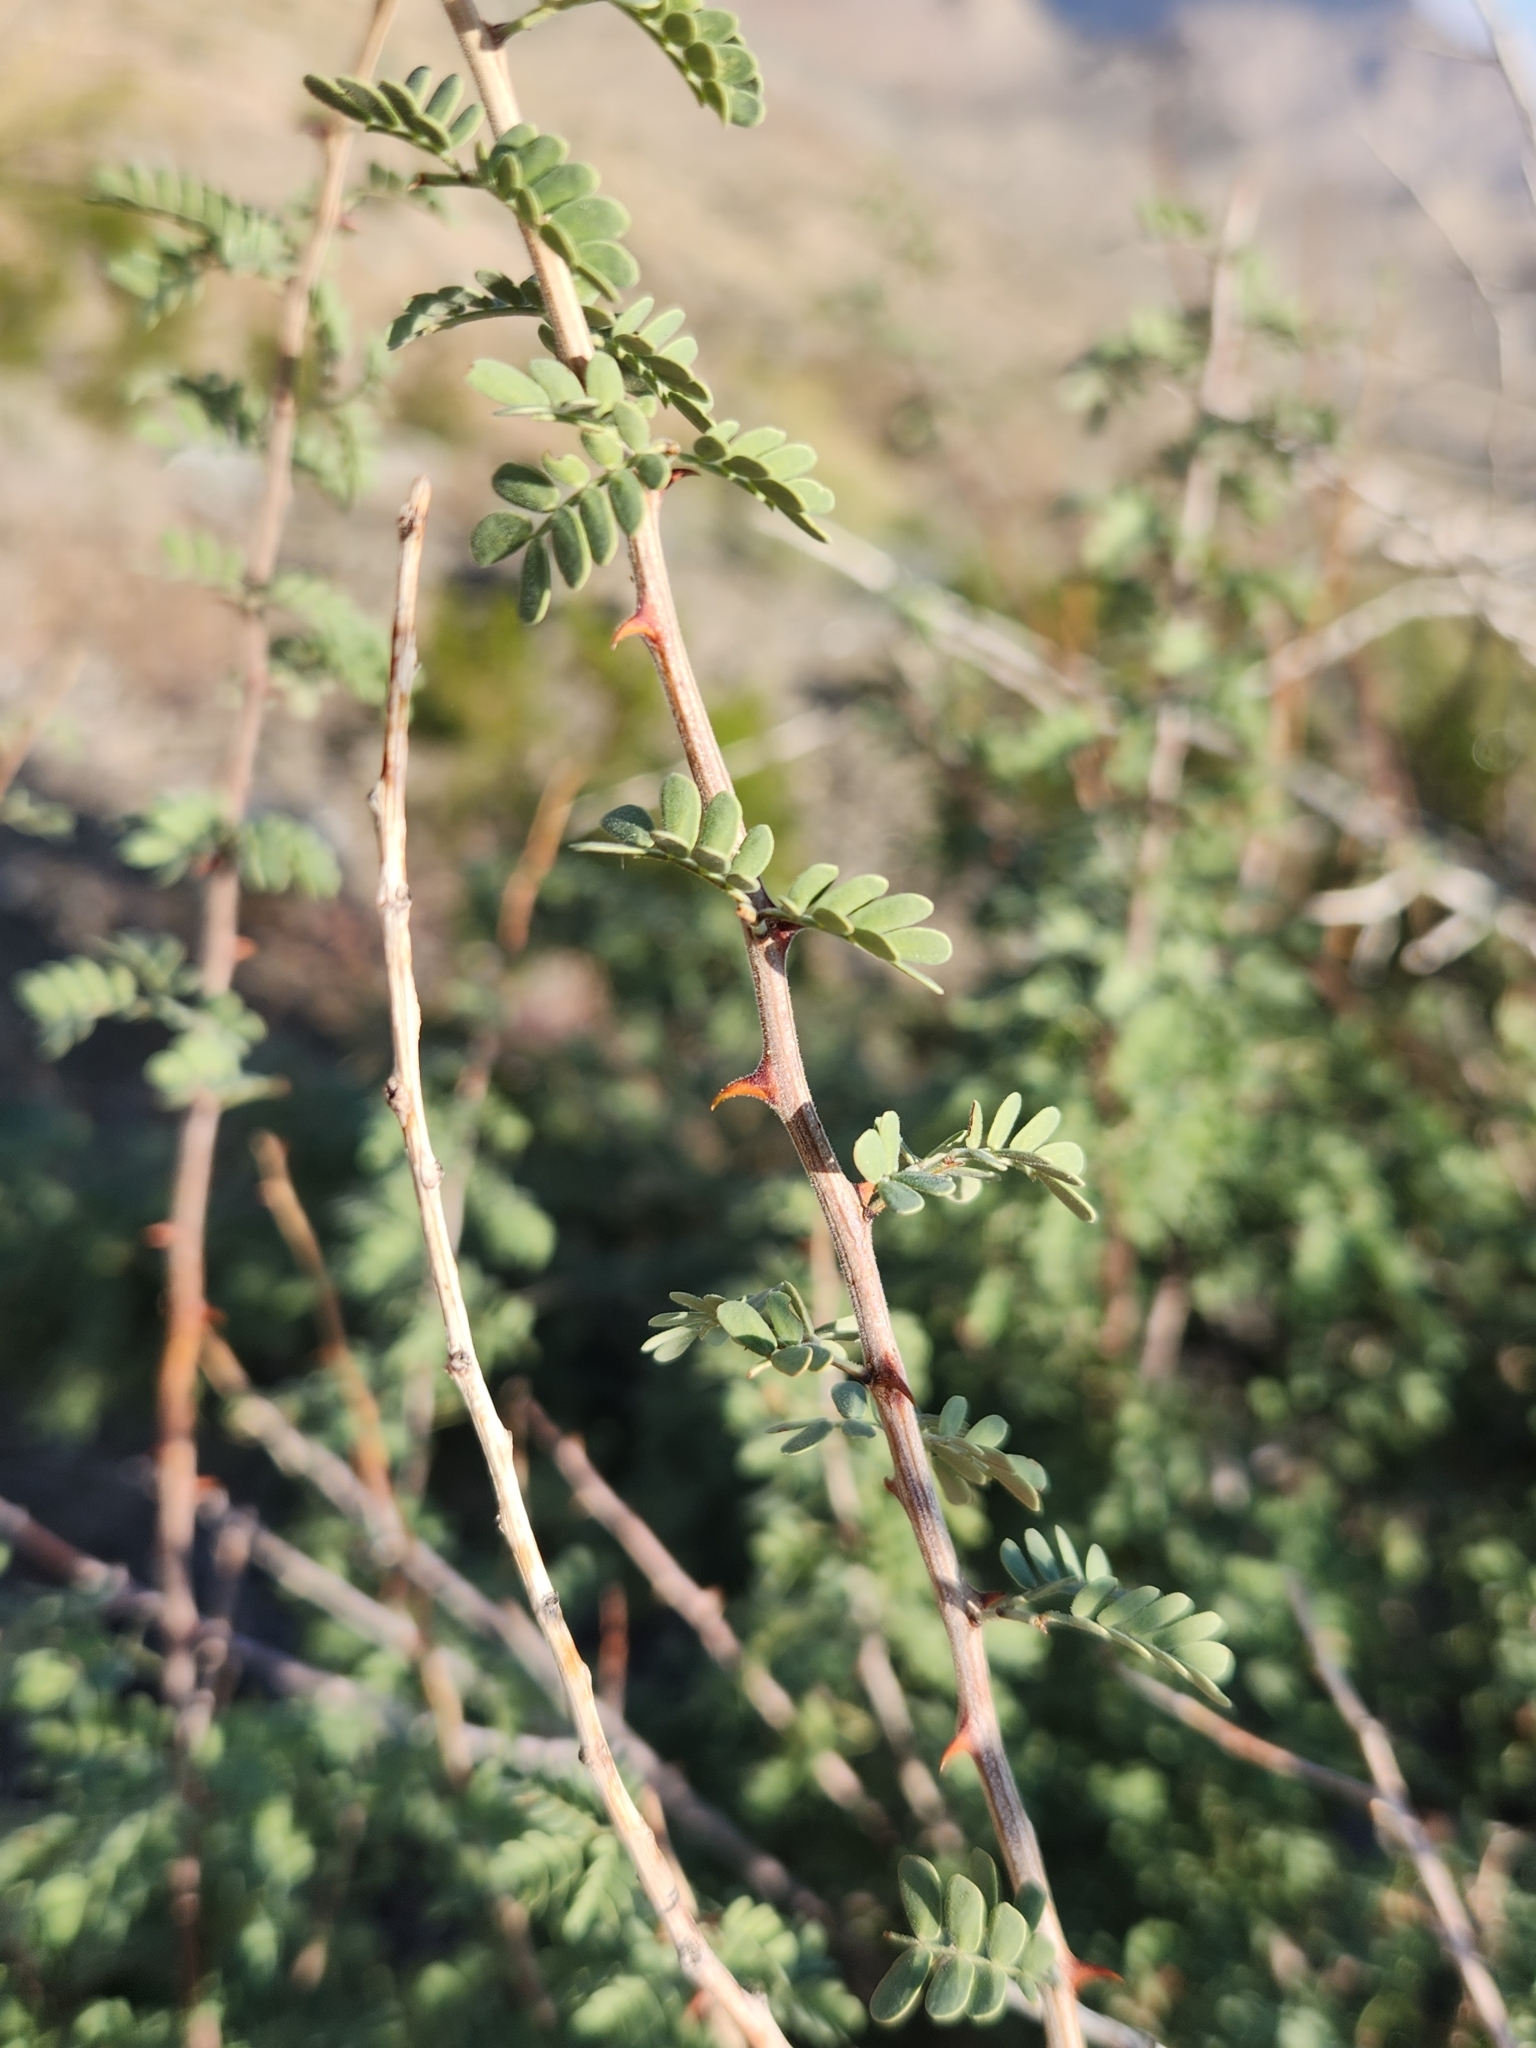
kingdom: Plantae
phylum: Tracheophyta
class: Magnoliopsida
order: Fabales
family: Fabaceae
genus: Senegalia
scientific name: Senegalia greggii
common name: Texas-mimosa
